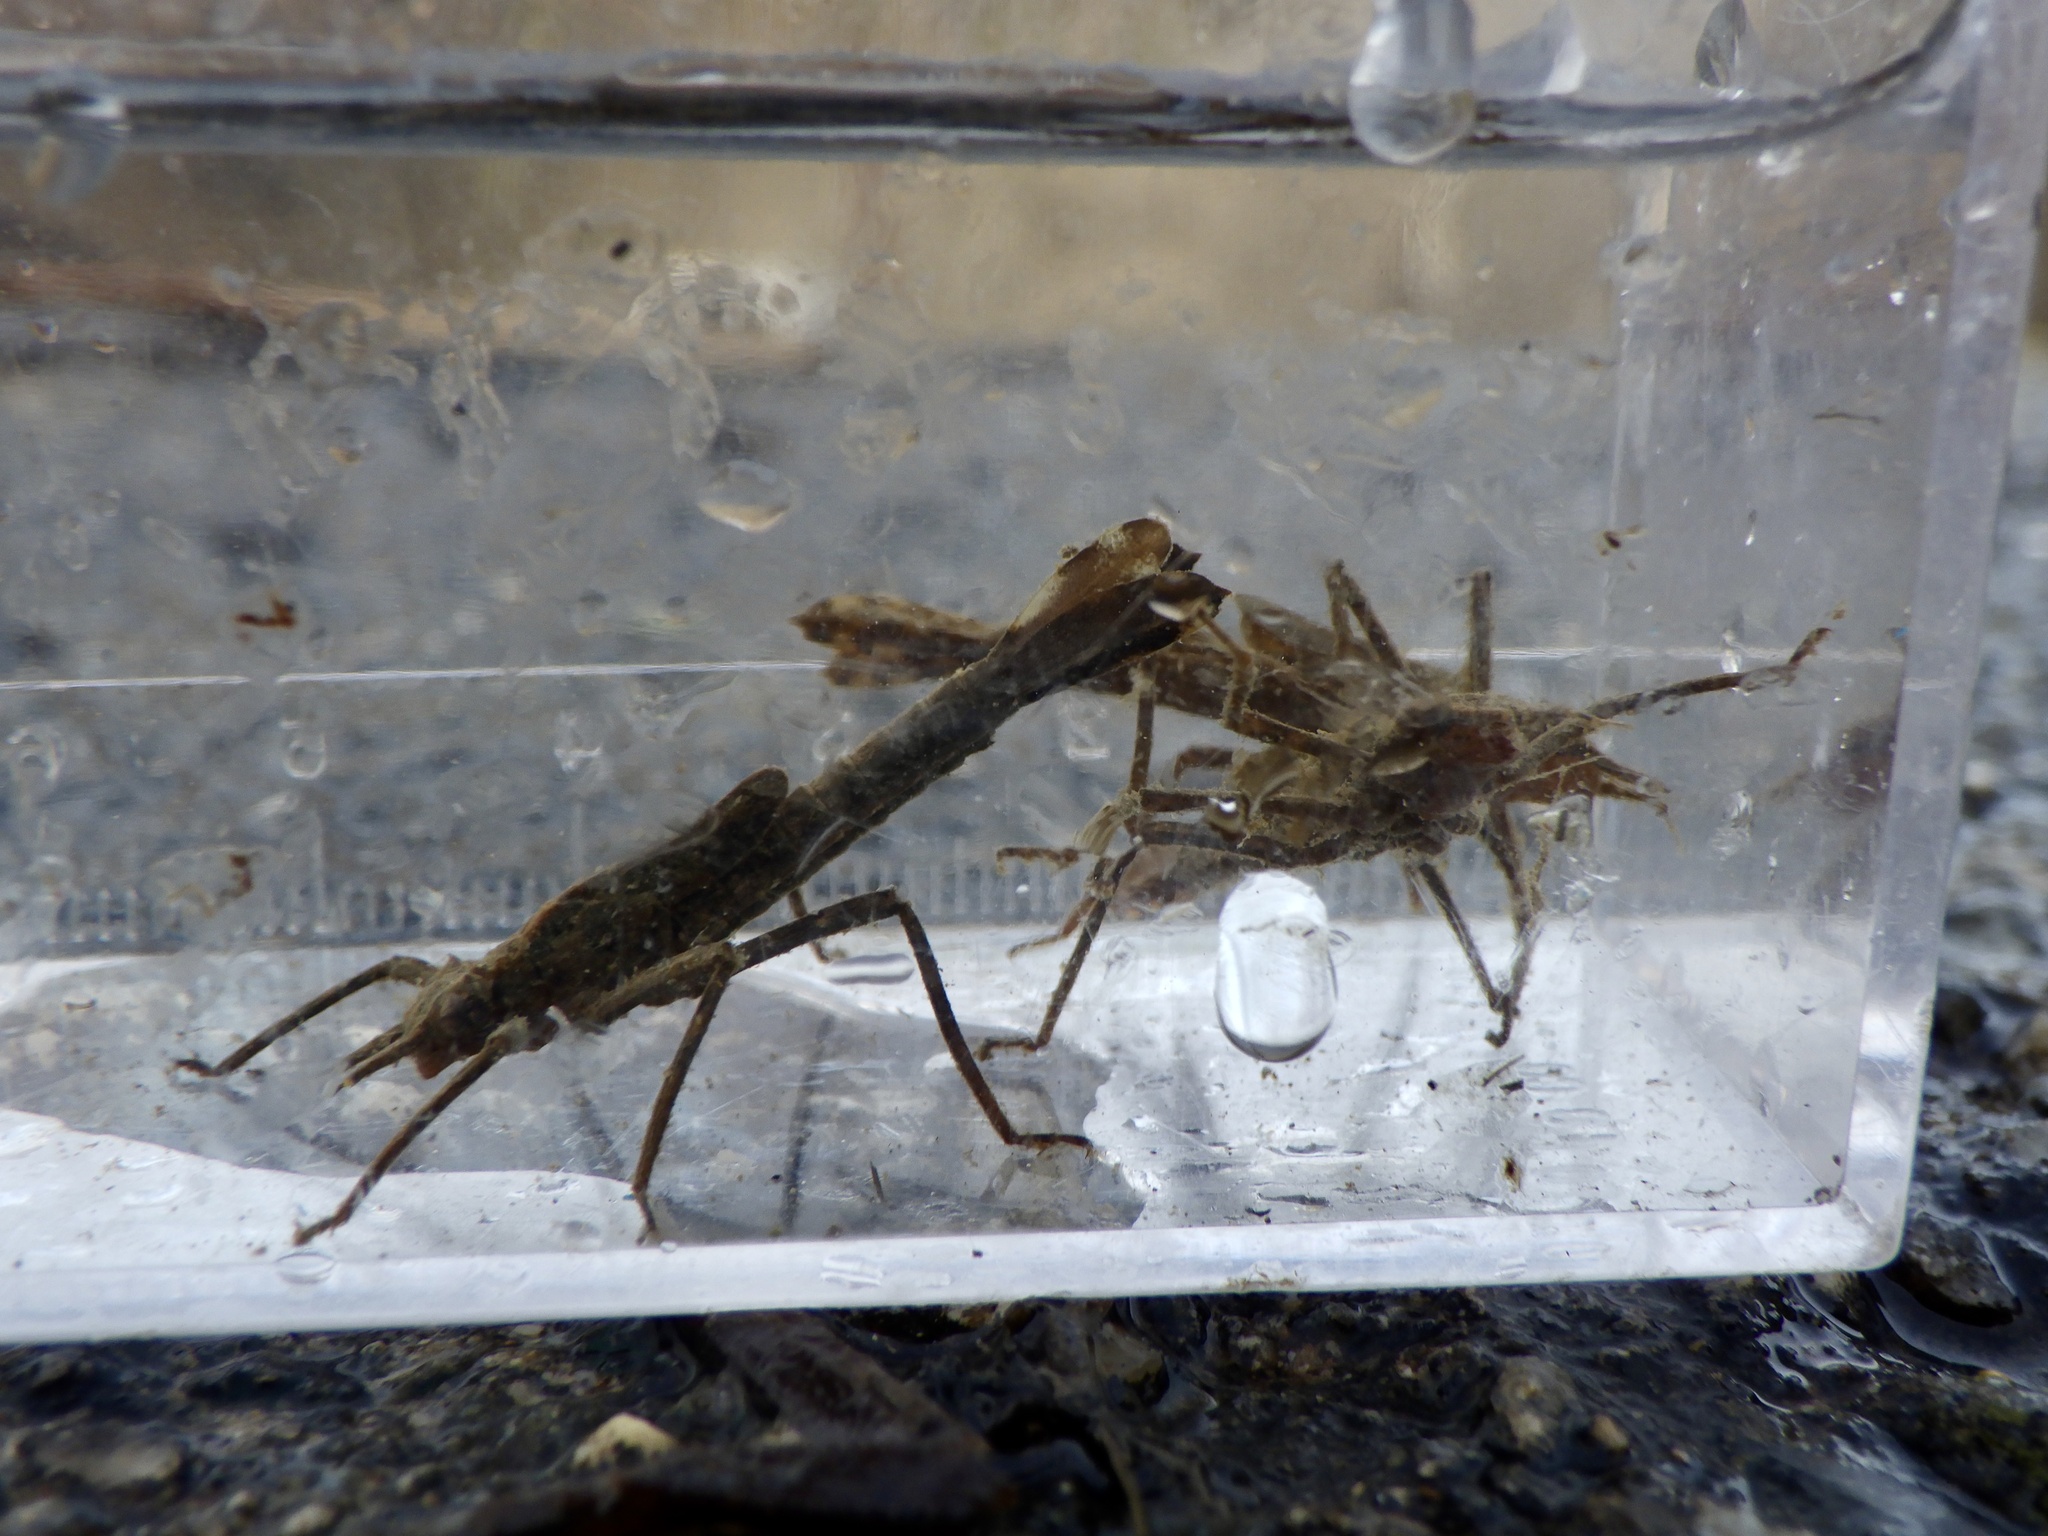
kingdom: Animalia
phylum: Arthropoda
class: Insecta
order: Odonata
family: Calopterygidae
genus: Mnais
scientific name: Mnais costalis
